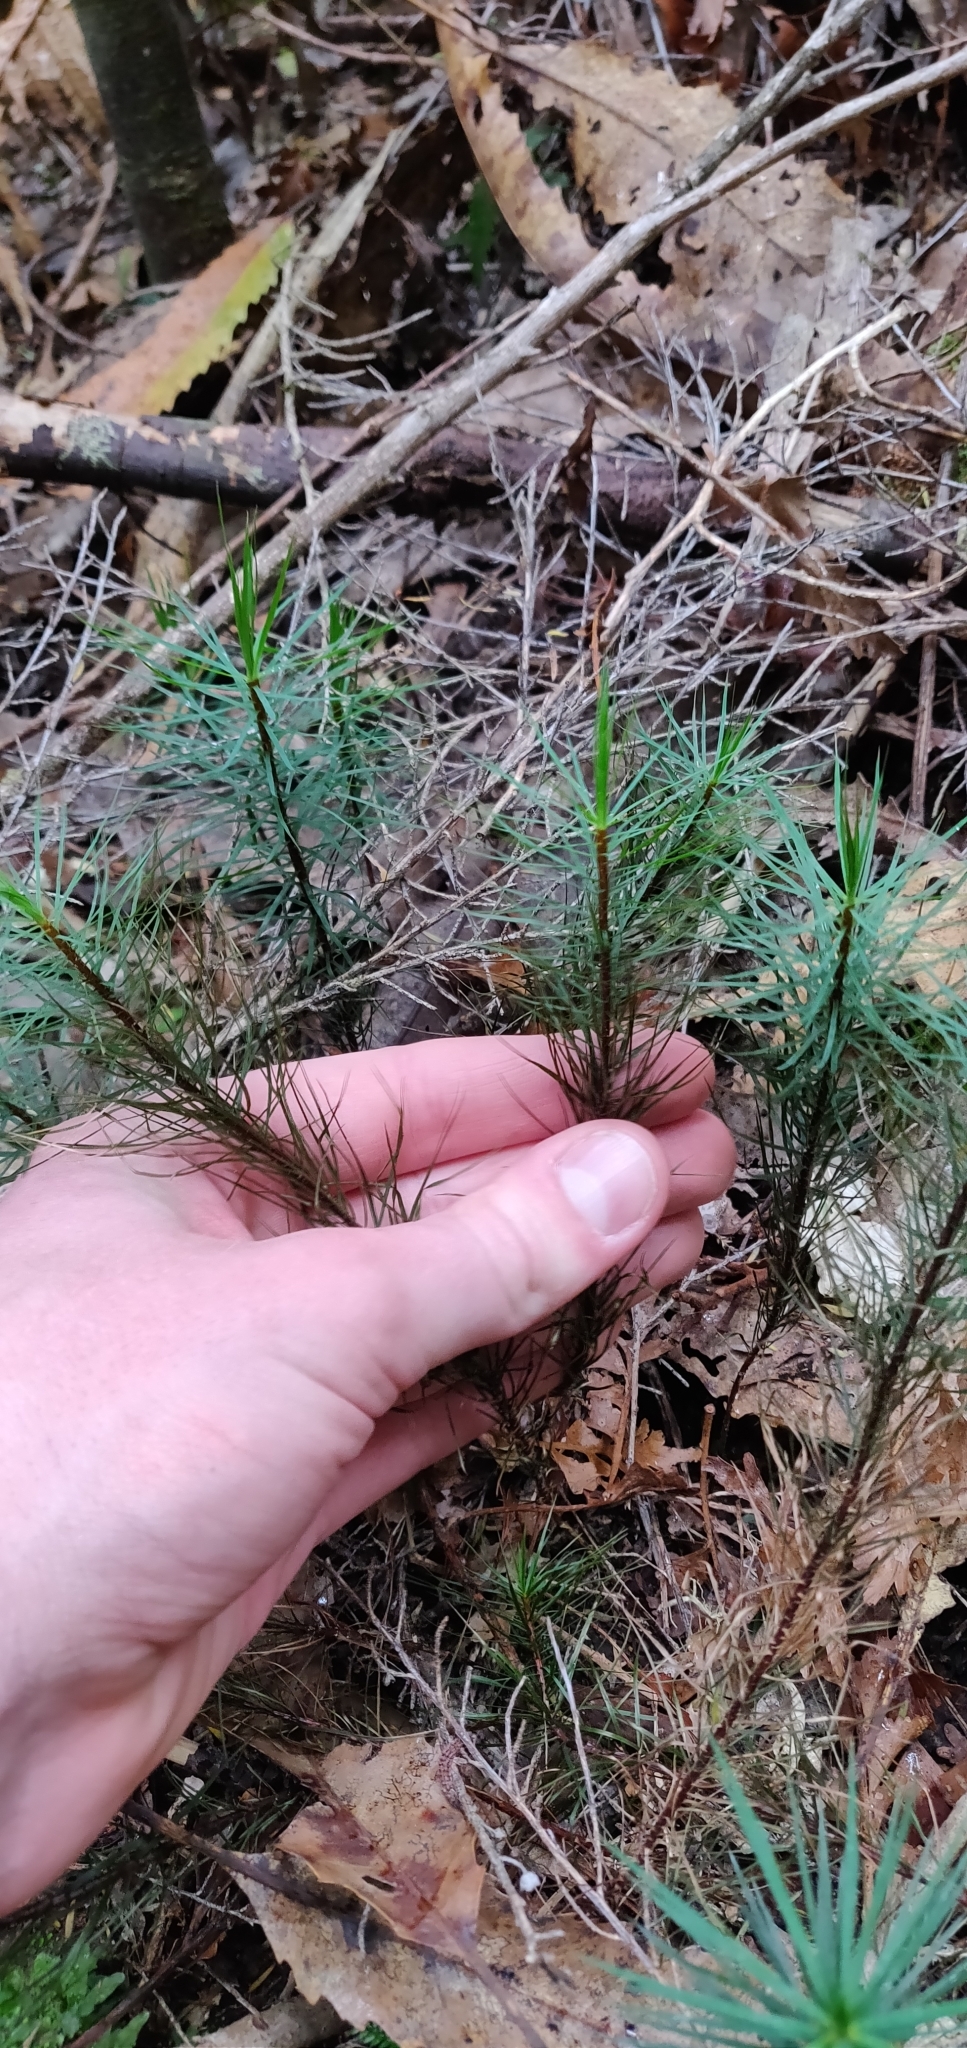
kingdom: Plantae
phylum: Bryophyta
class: Polytrichopsida
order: Polytrichales
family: Polytrichaceae
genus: Dawsonia
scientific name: Dawsonia superba
